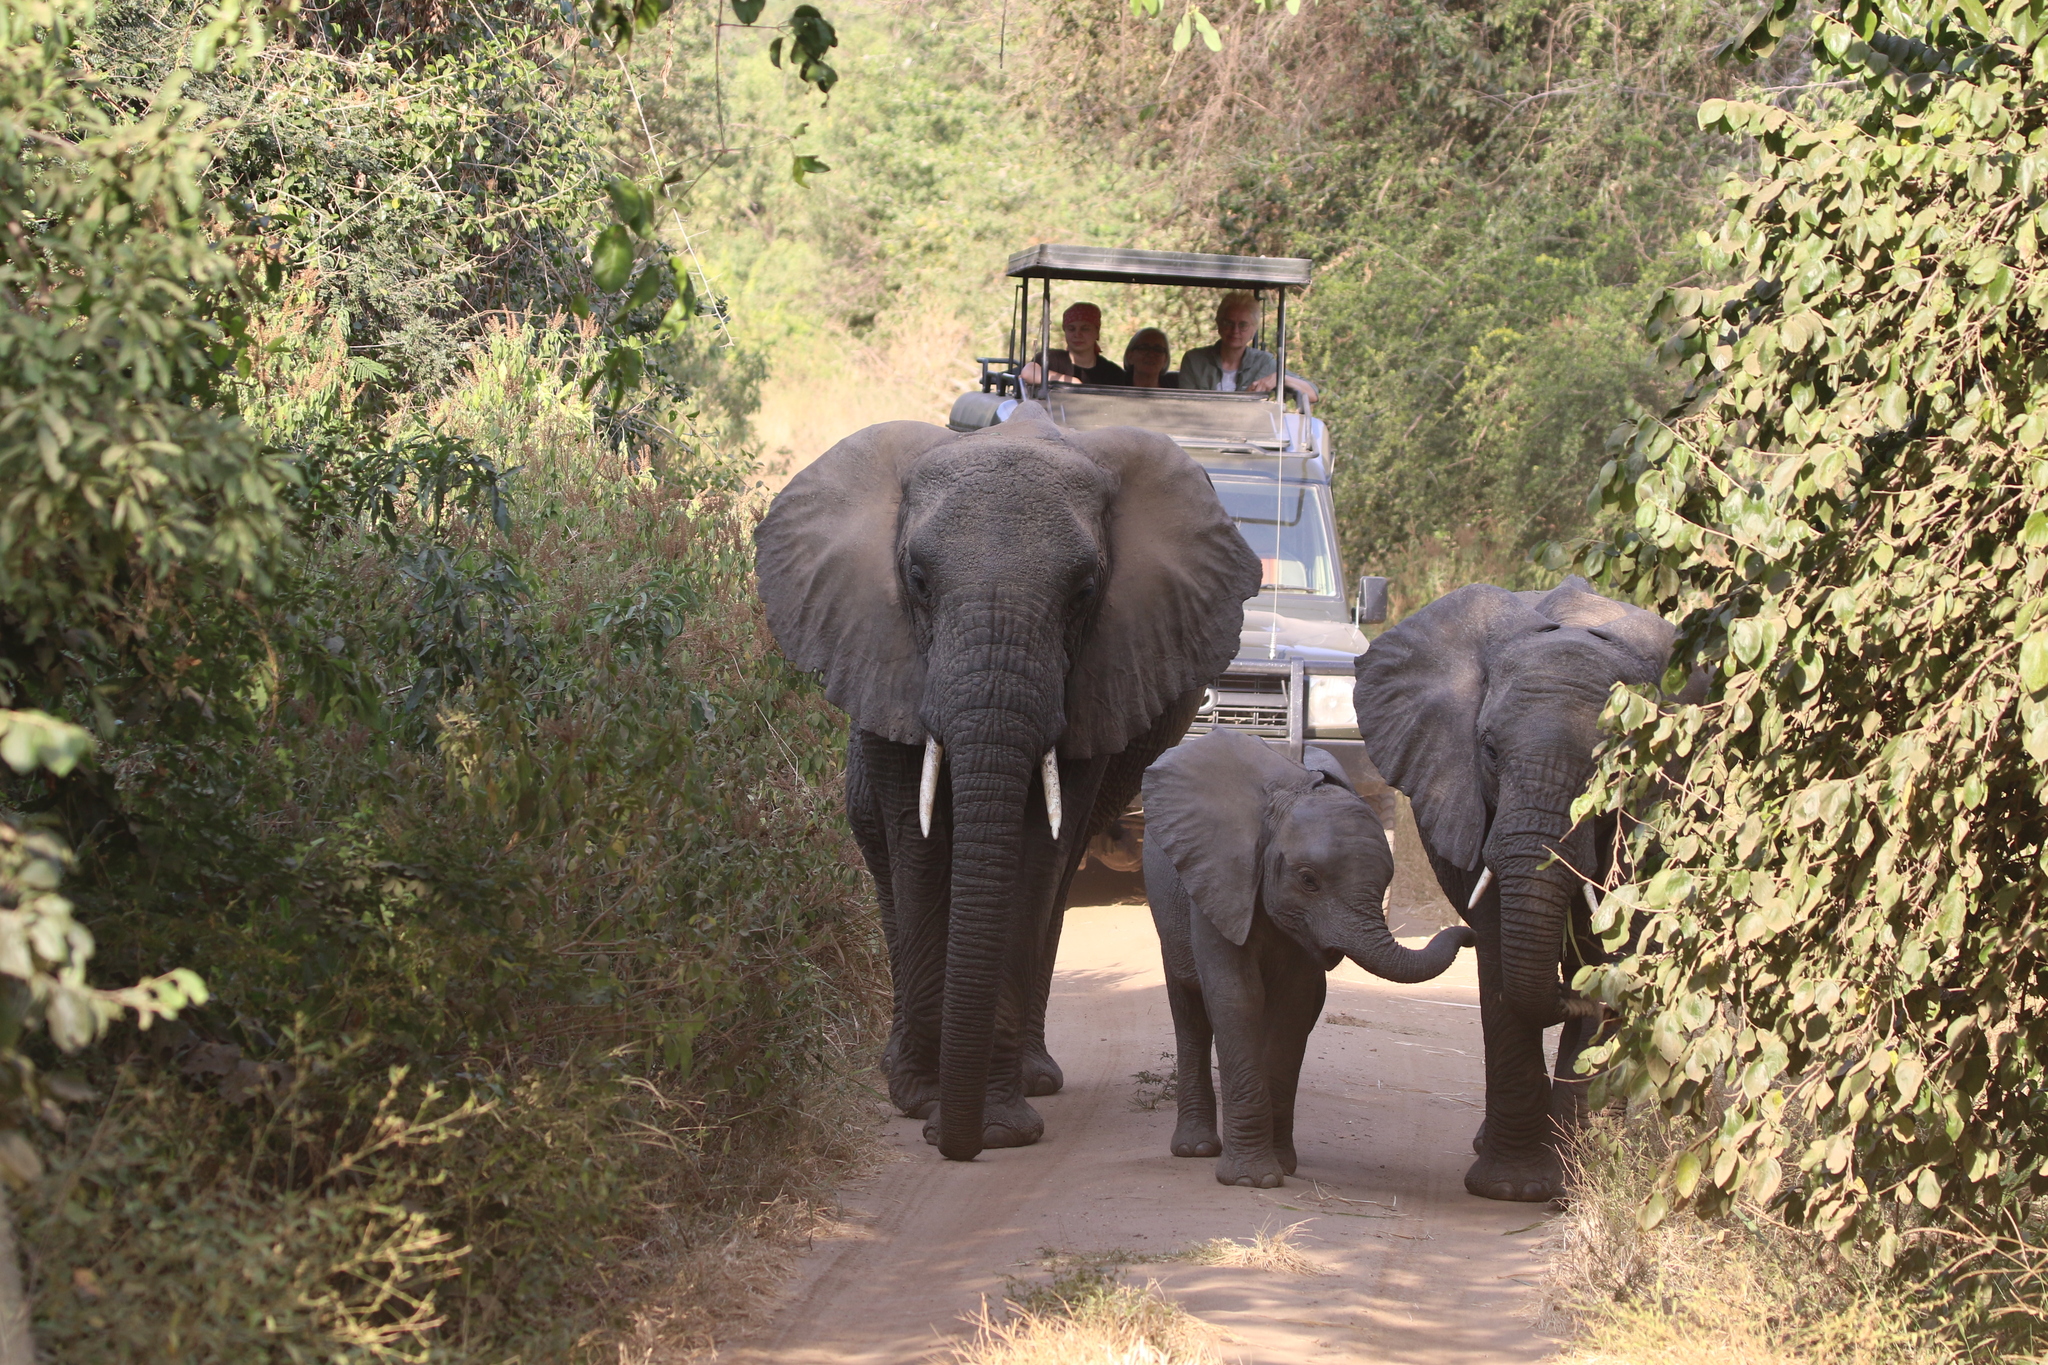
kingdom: Animalia
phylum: Chordata
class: Mammalia
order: Proboscidea
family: Elephantidae
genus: Loxodonta
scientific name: Loxodonta africana
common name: African elephant
